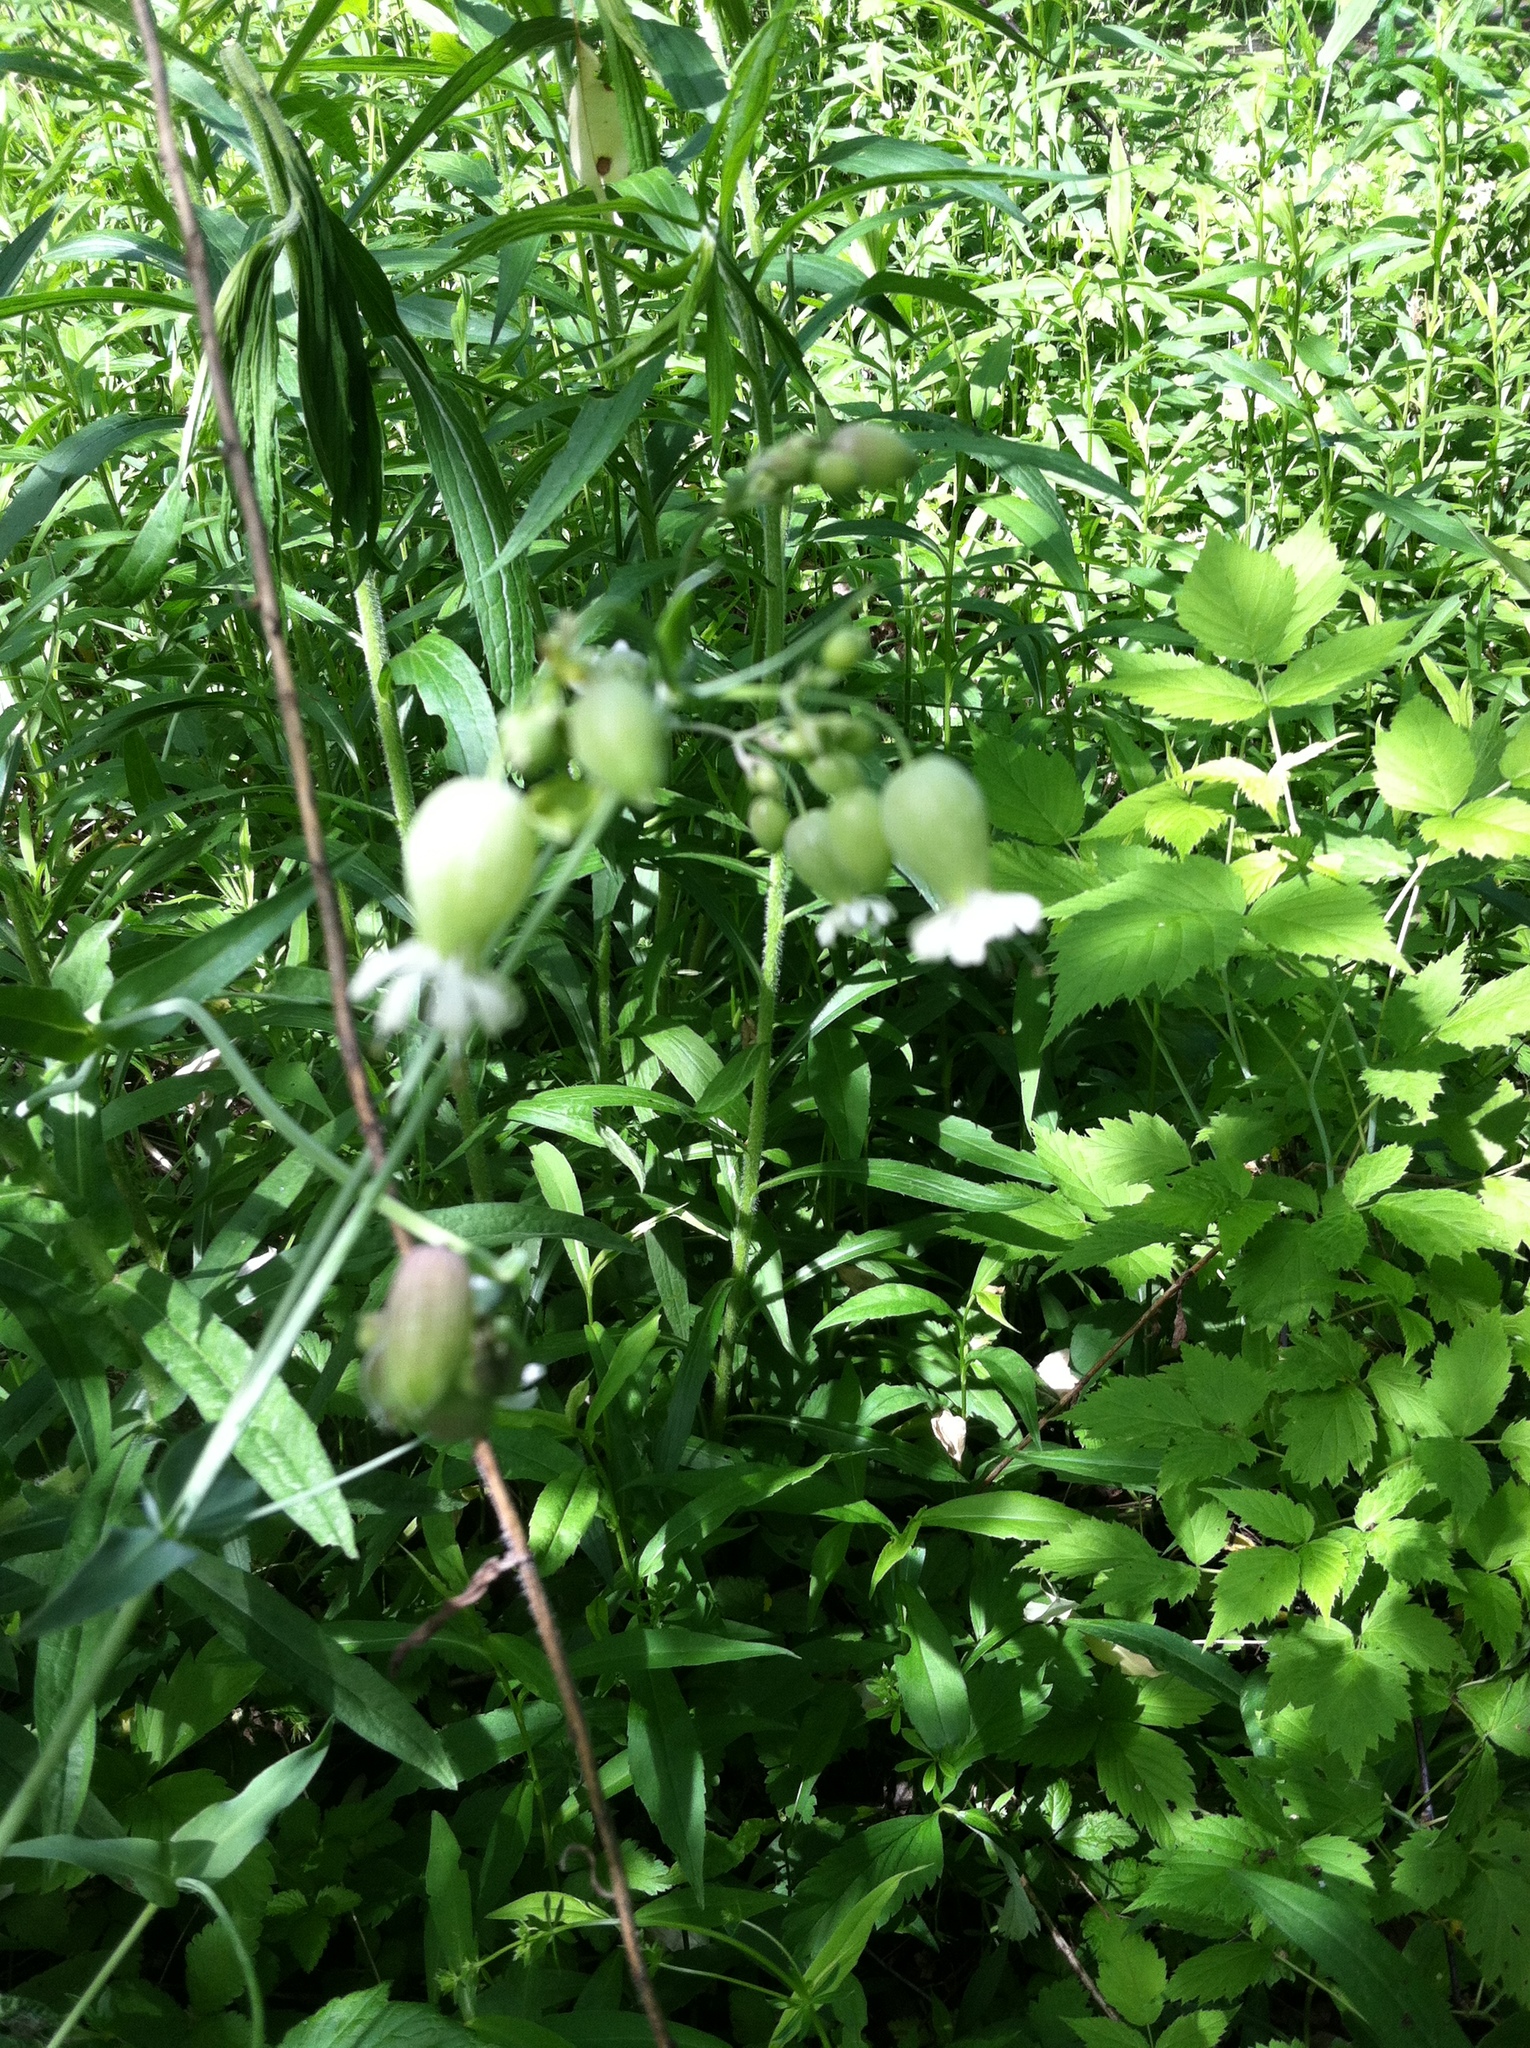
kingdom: Plantae
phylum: Tracheophyta
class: Magnoliopsida
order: Caryophyllales
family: Caryophyllaceae
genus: Silene
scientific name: Silene vulgaris
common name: Bladder campion
